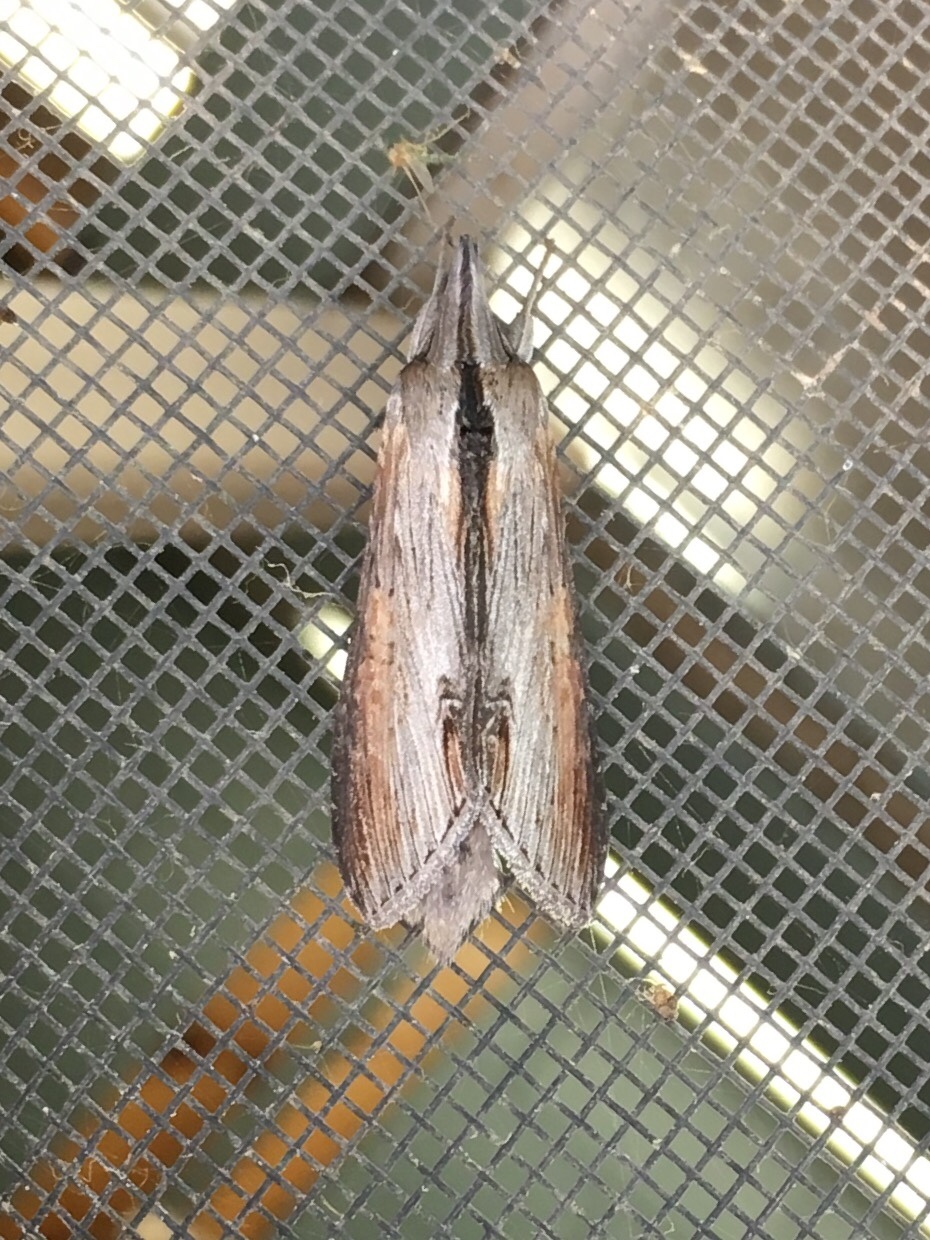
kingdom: Animalia
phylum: Arthropoda
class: Insecta
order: Lepidoptera
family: Noctuidae
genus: Cucullia
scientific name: Cucullia asteroides
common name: Asteroid moth
